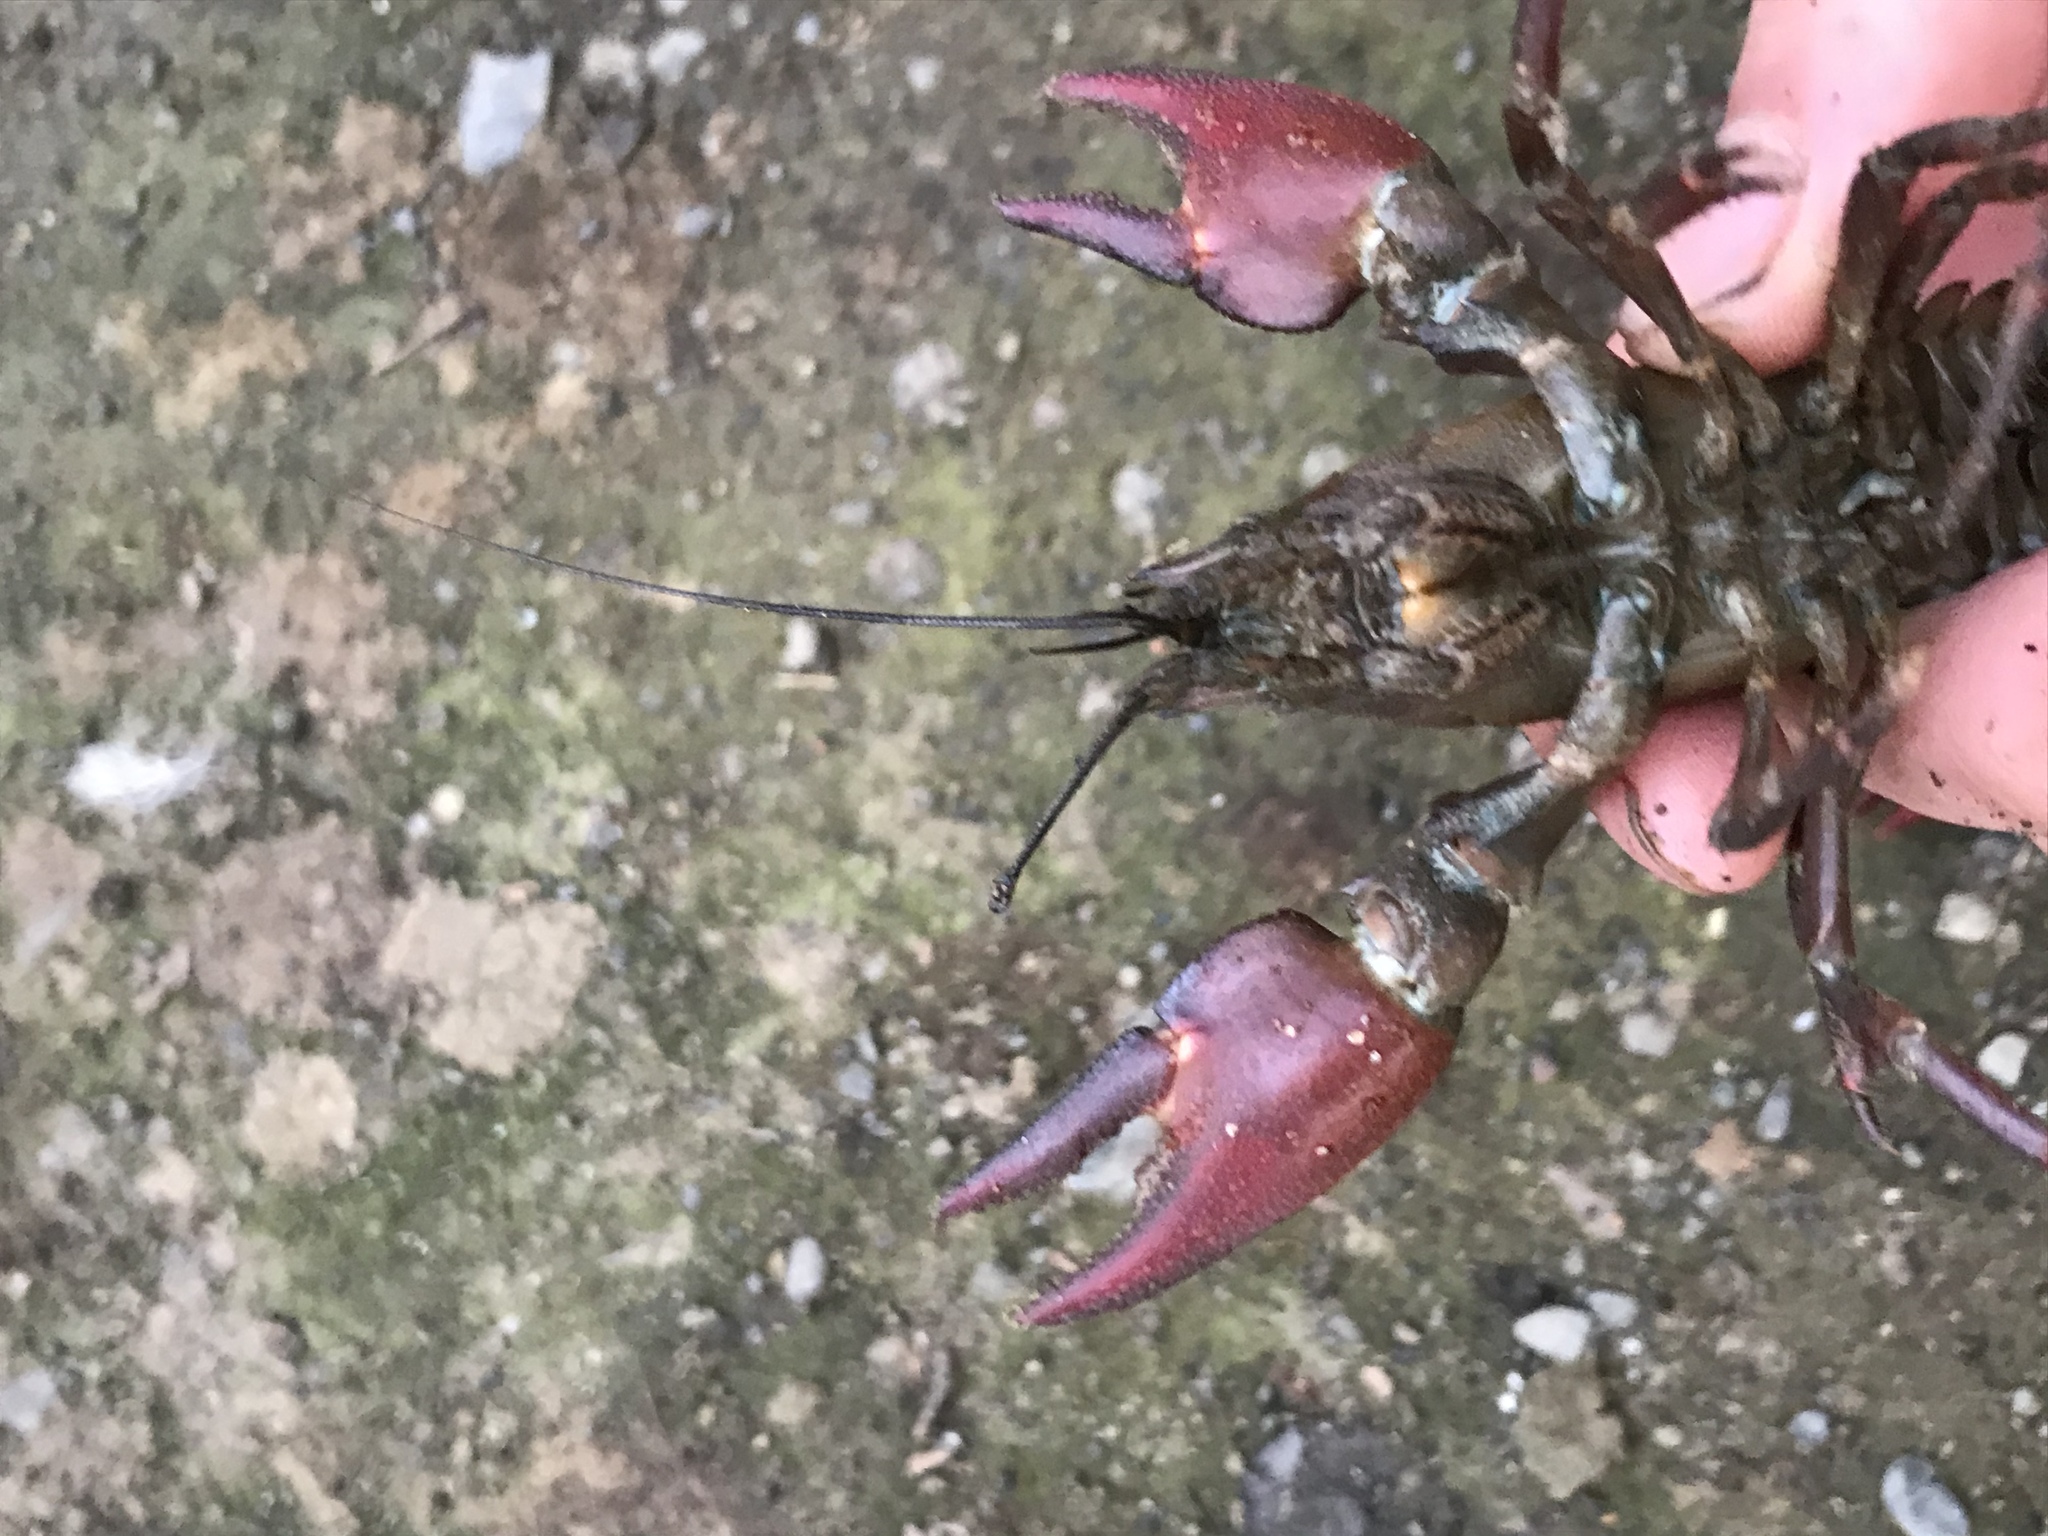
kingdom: Animalia
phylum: Arthropoda
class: Malacostraca
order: Decapoda
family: Astacidae
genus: Pacifastacus
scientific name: Pacifastacus leniusculus
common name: Signal crayfish
